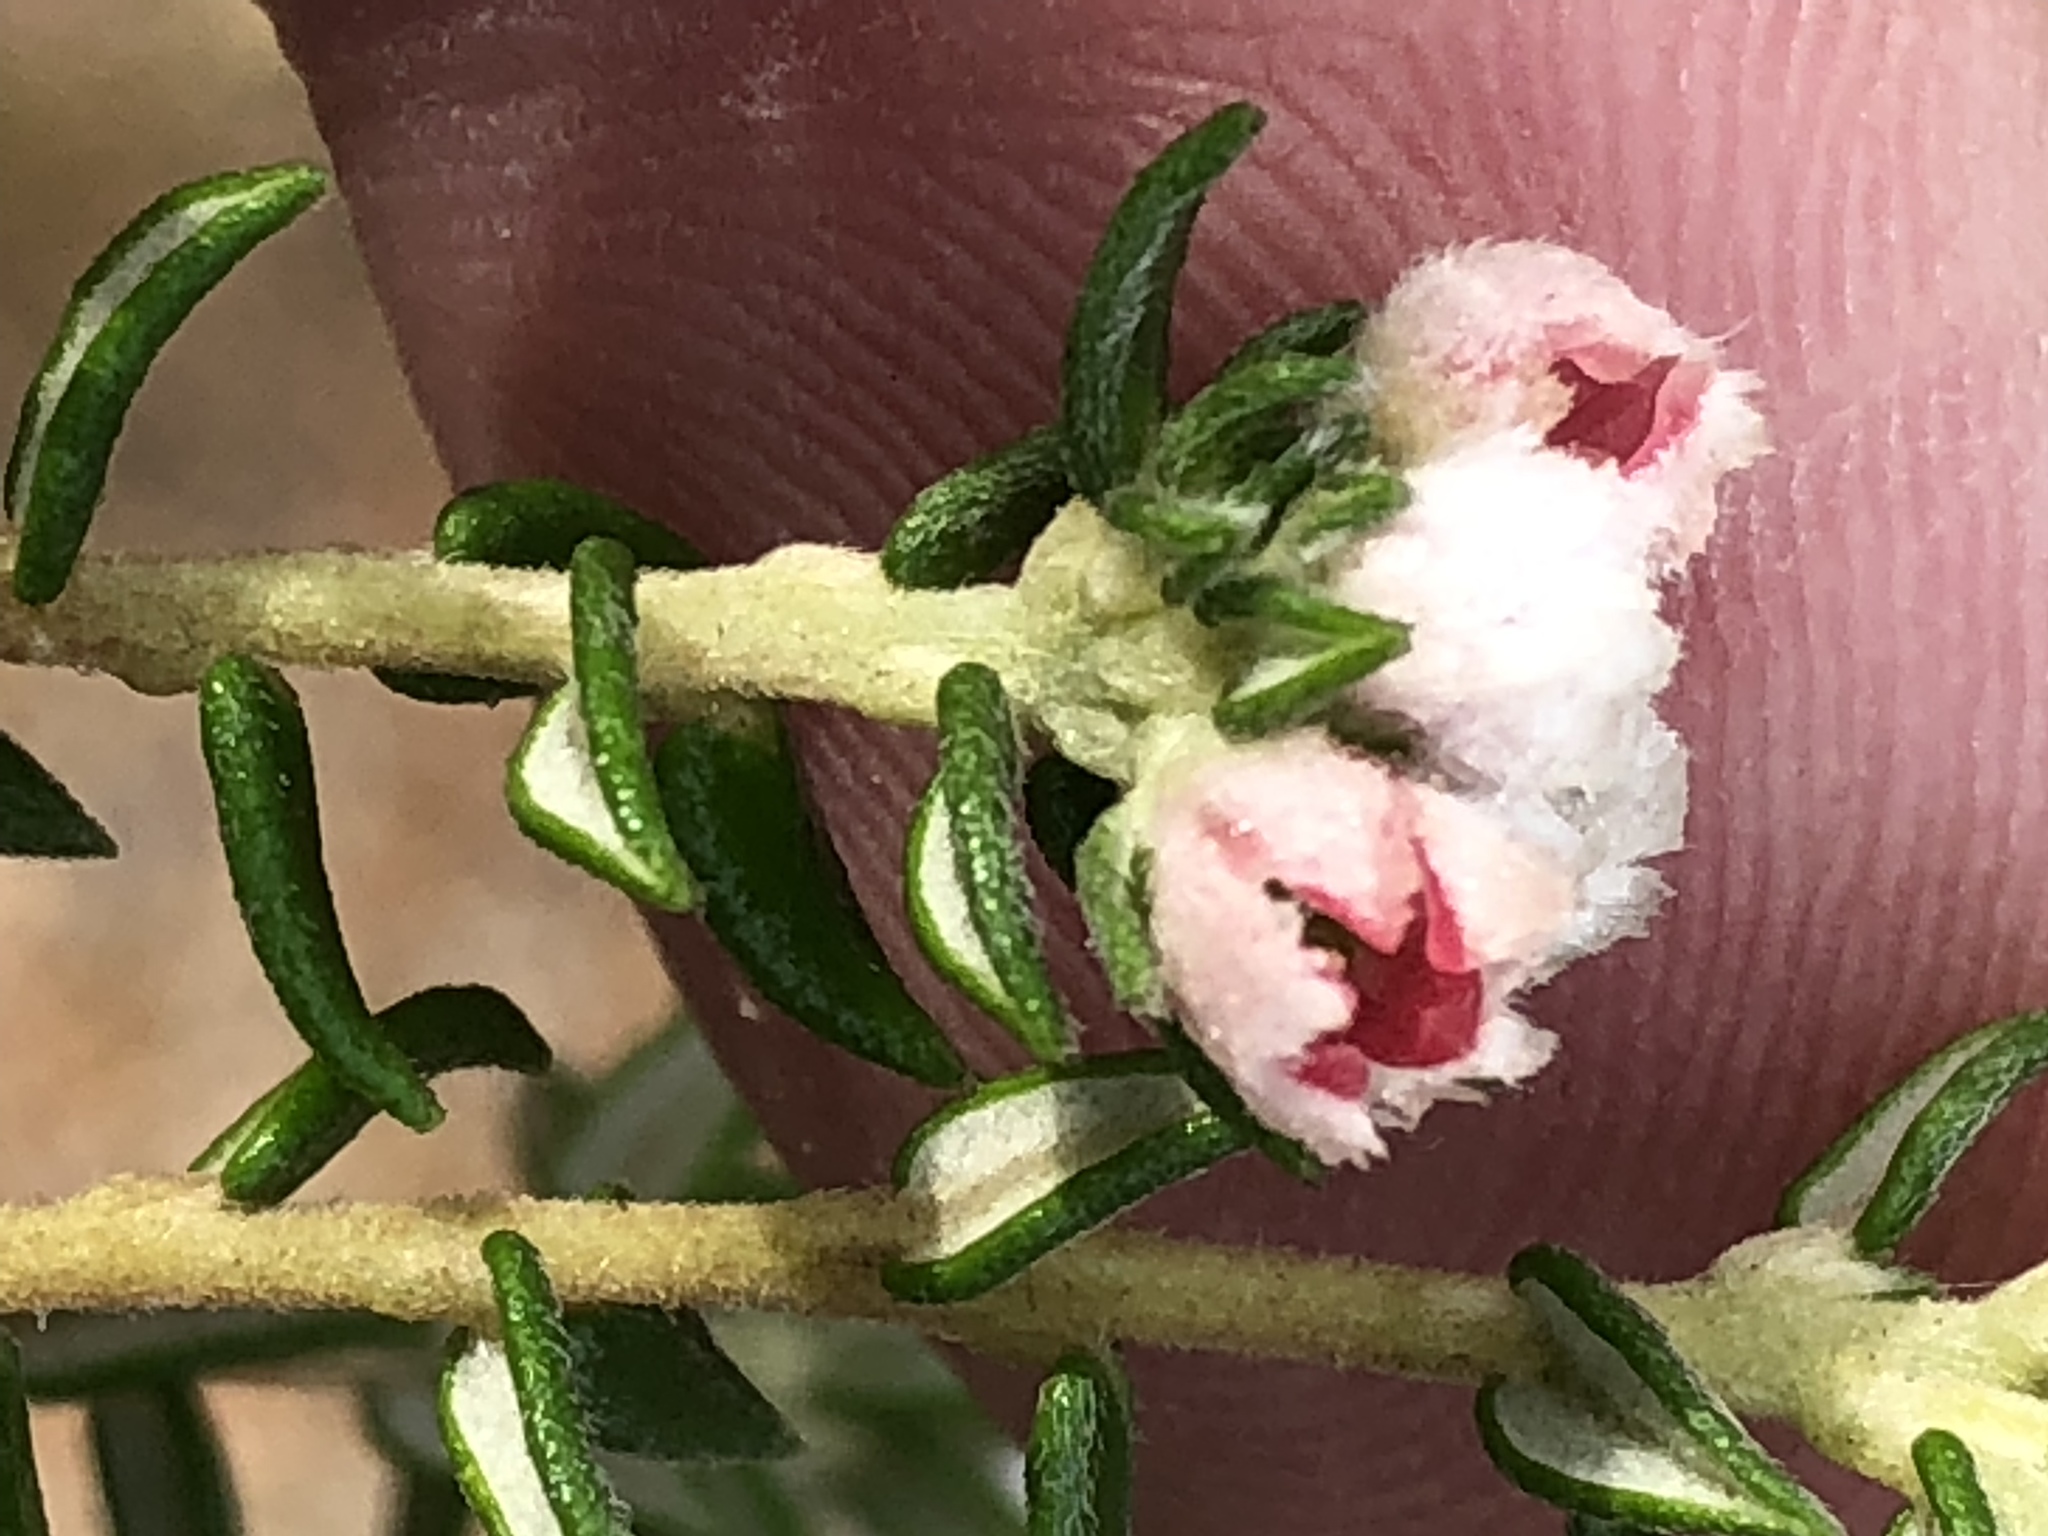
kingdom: Plantae
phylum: Tracheophyta
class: Magnoliopsida
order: Rosales
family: Rhamnaceae
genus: Phylica
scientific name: Phylica purpurea
